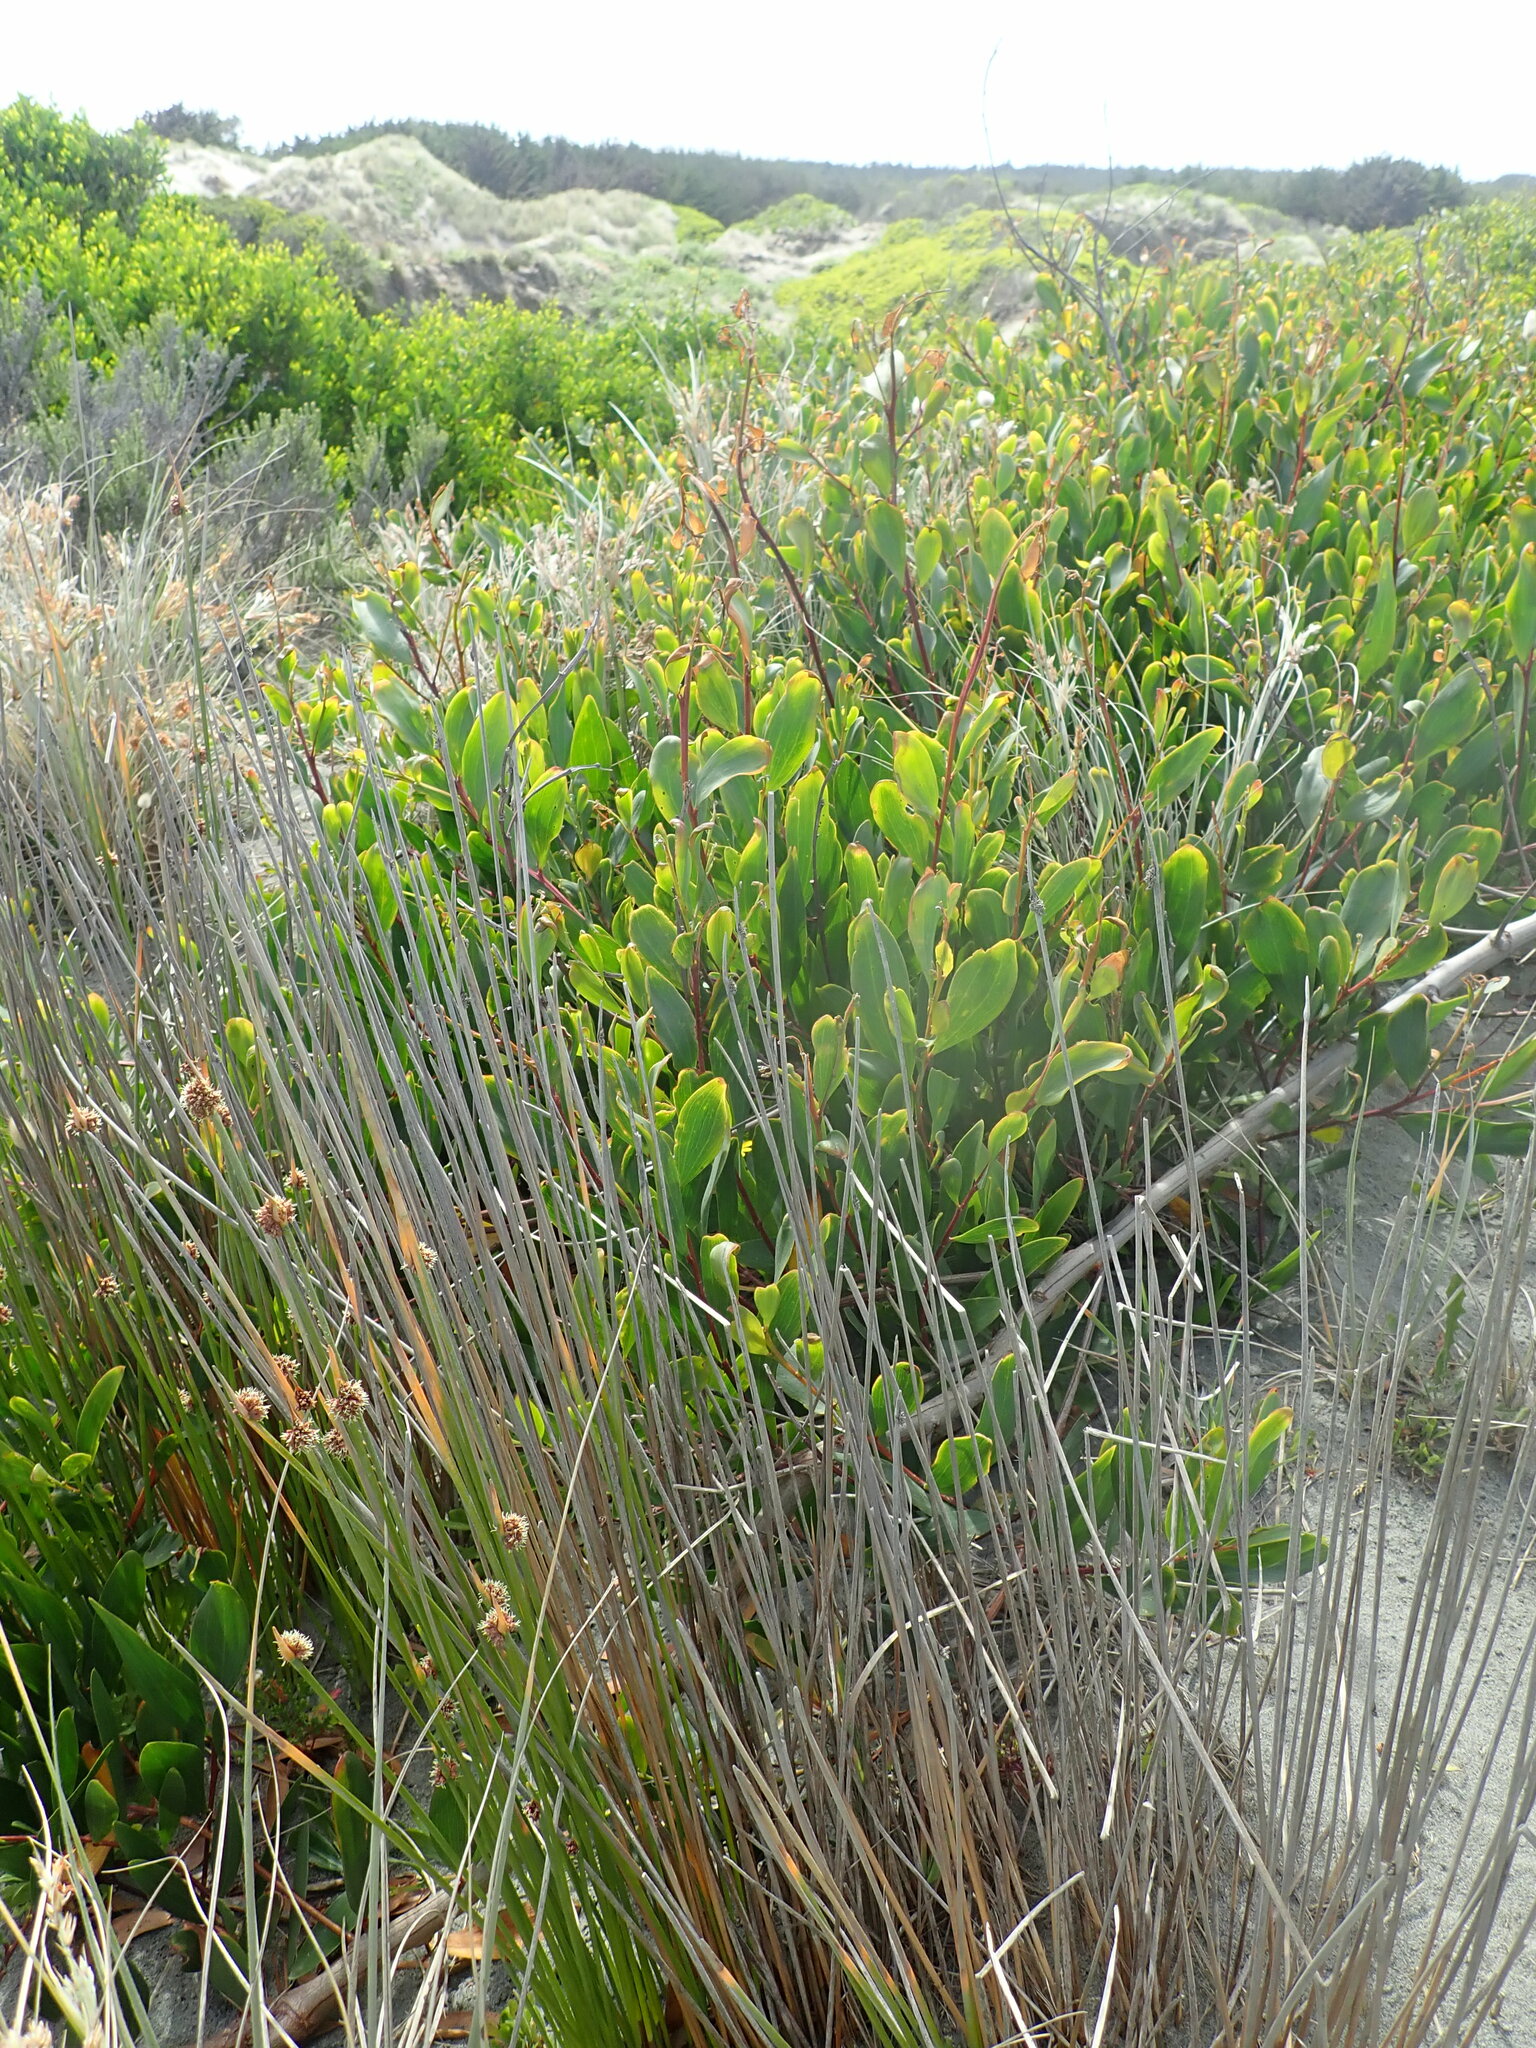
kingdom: Plantae
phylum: Tracheophyta
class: Magnoliopsida
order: Fabales
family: Fabaceae
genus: Acacia
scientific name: Acacia longifolia
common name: Sydney golden wattle
